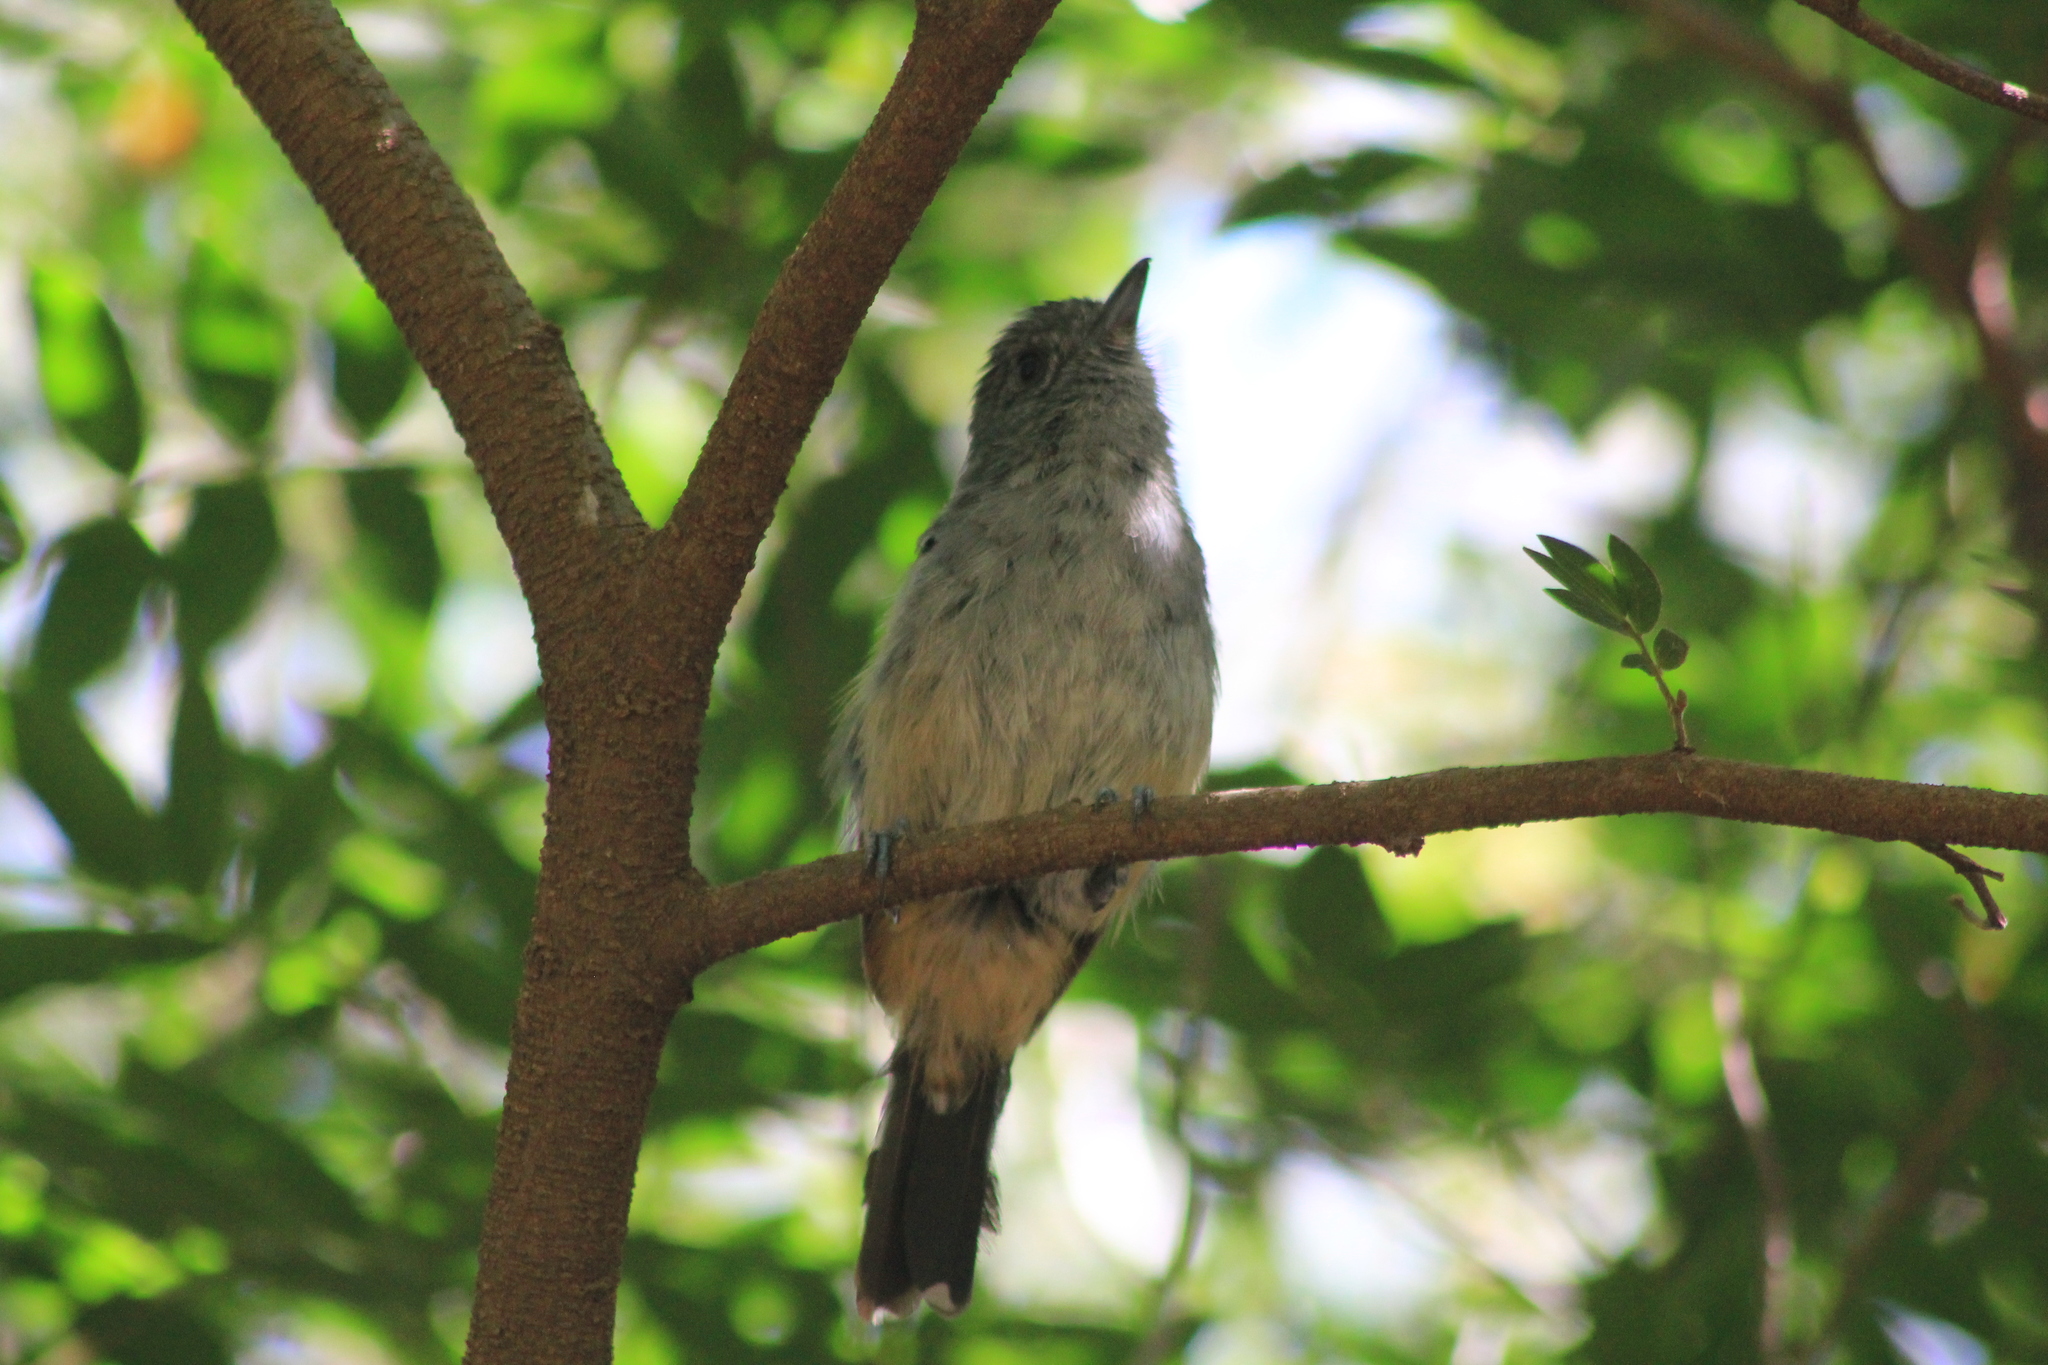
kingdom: Animalia
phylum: Chordata
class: Aves
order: Passeriformes
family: Thamnophilidae
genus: Thamnophilus
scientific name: Thamnophilus caerulescens
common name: Variable antshrike
